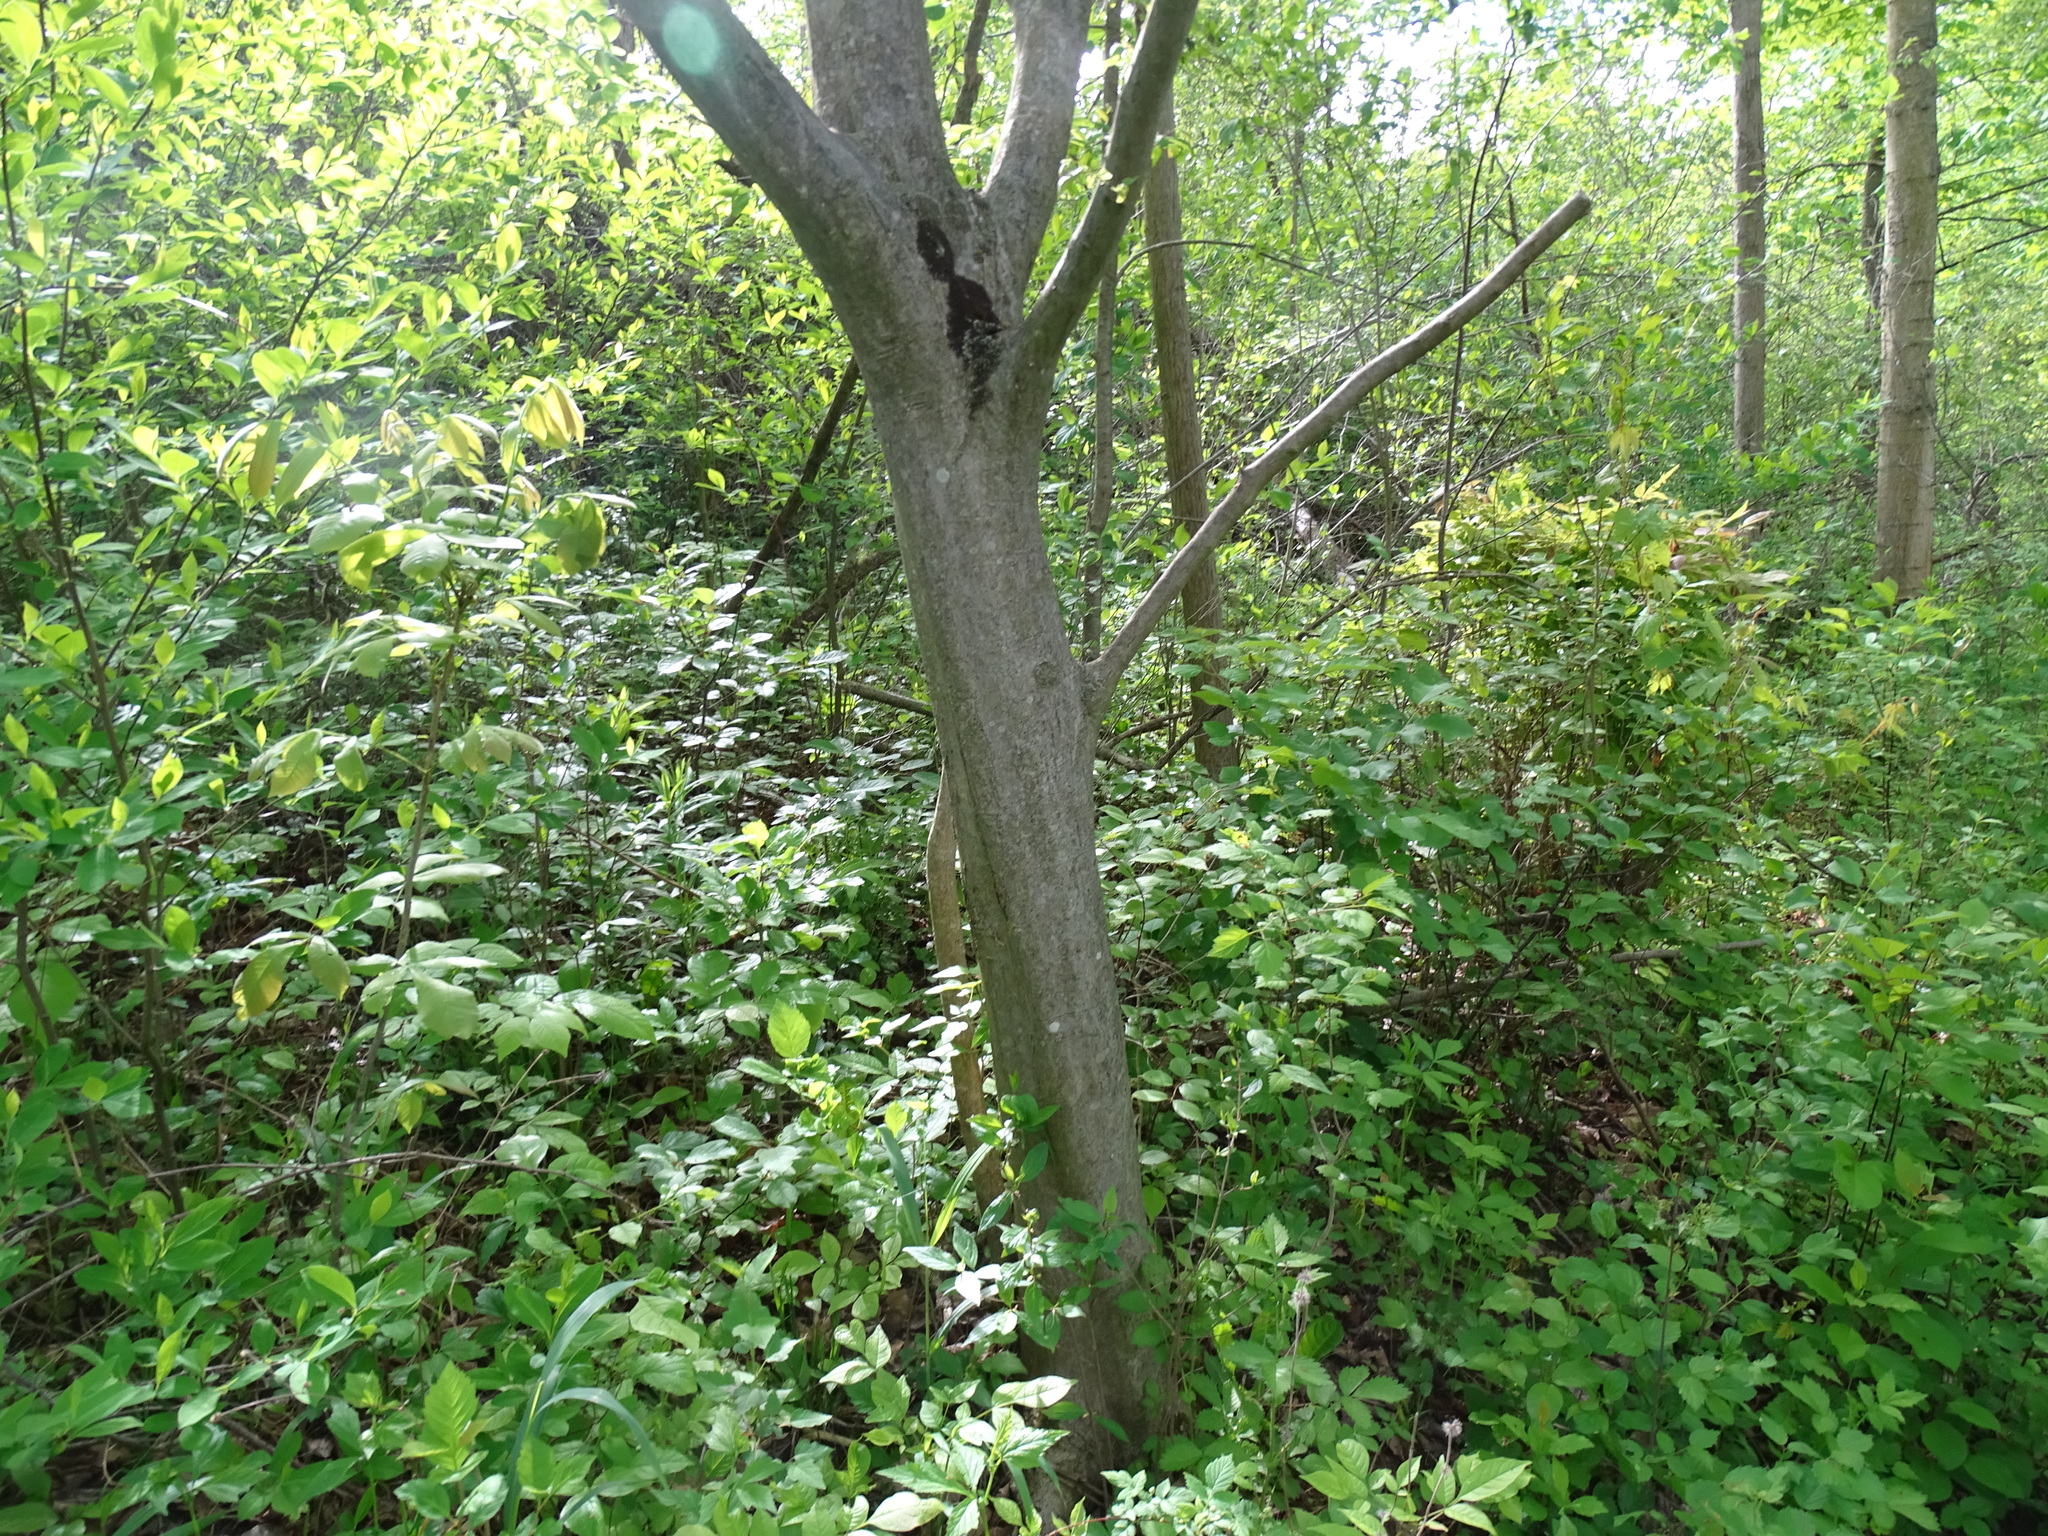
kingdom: Plantae
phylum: Tracheophyta
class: Magnoliopsida
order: Fagales
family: Betulaceae
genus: Carpinus
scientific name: Carpinus caroliniana
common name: American hornbeam
